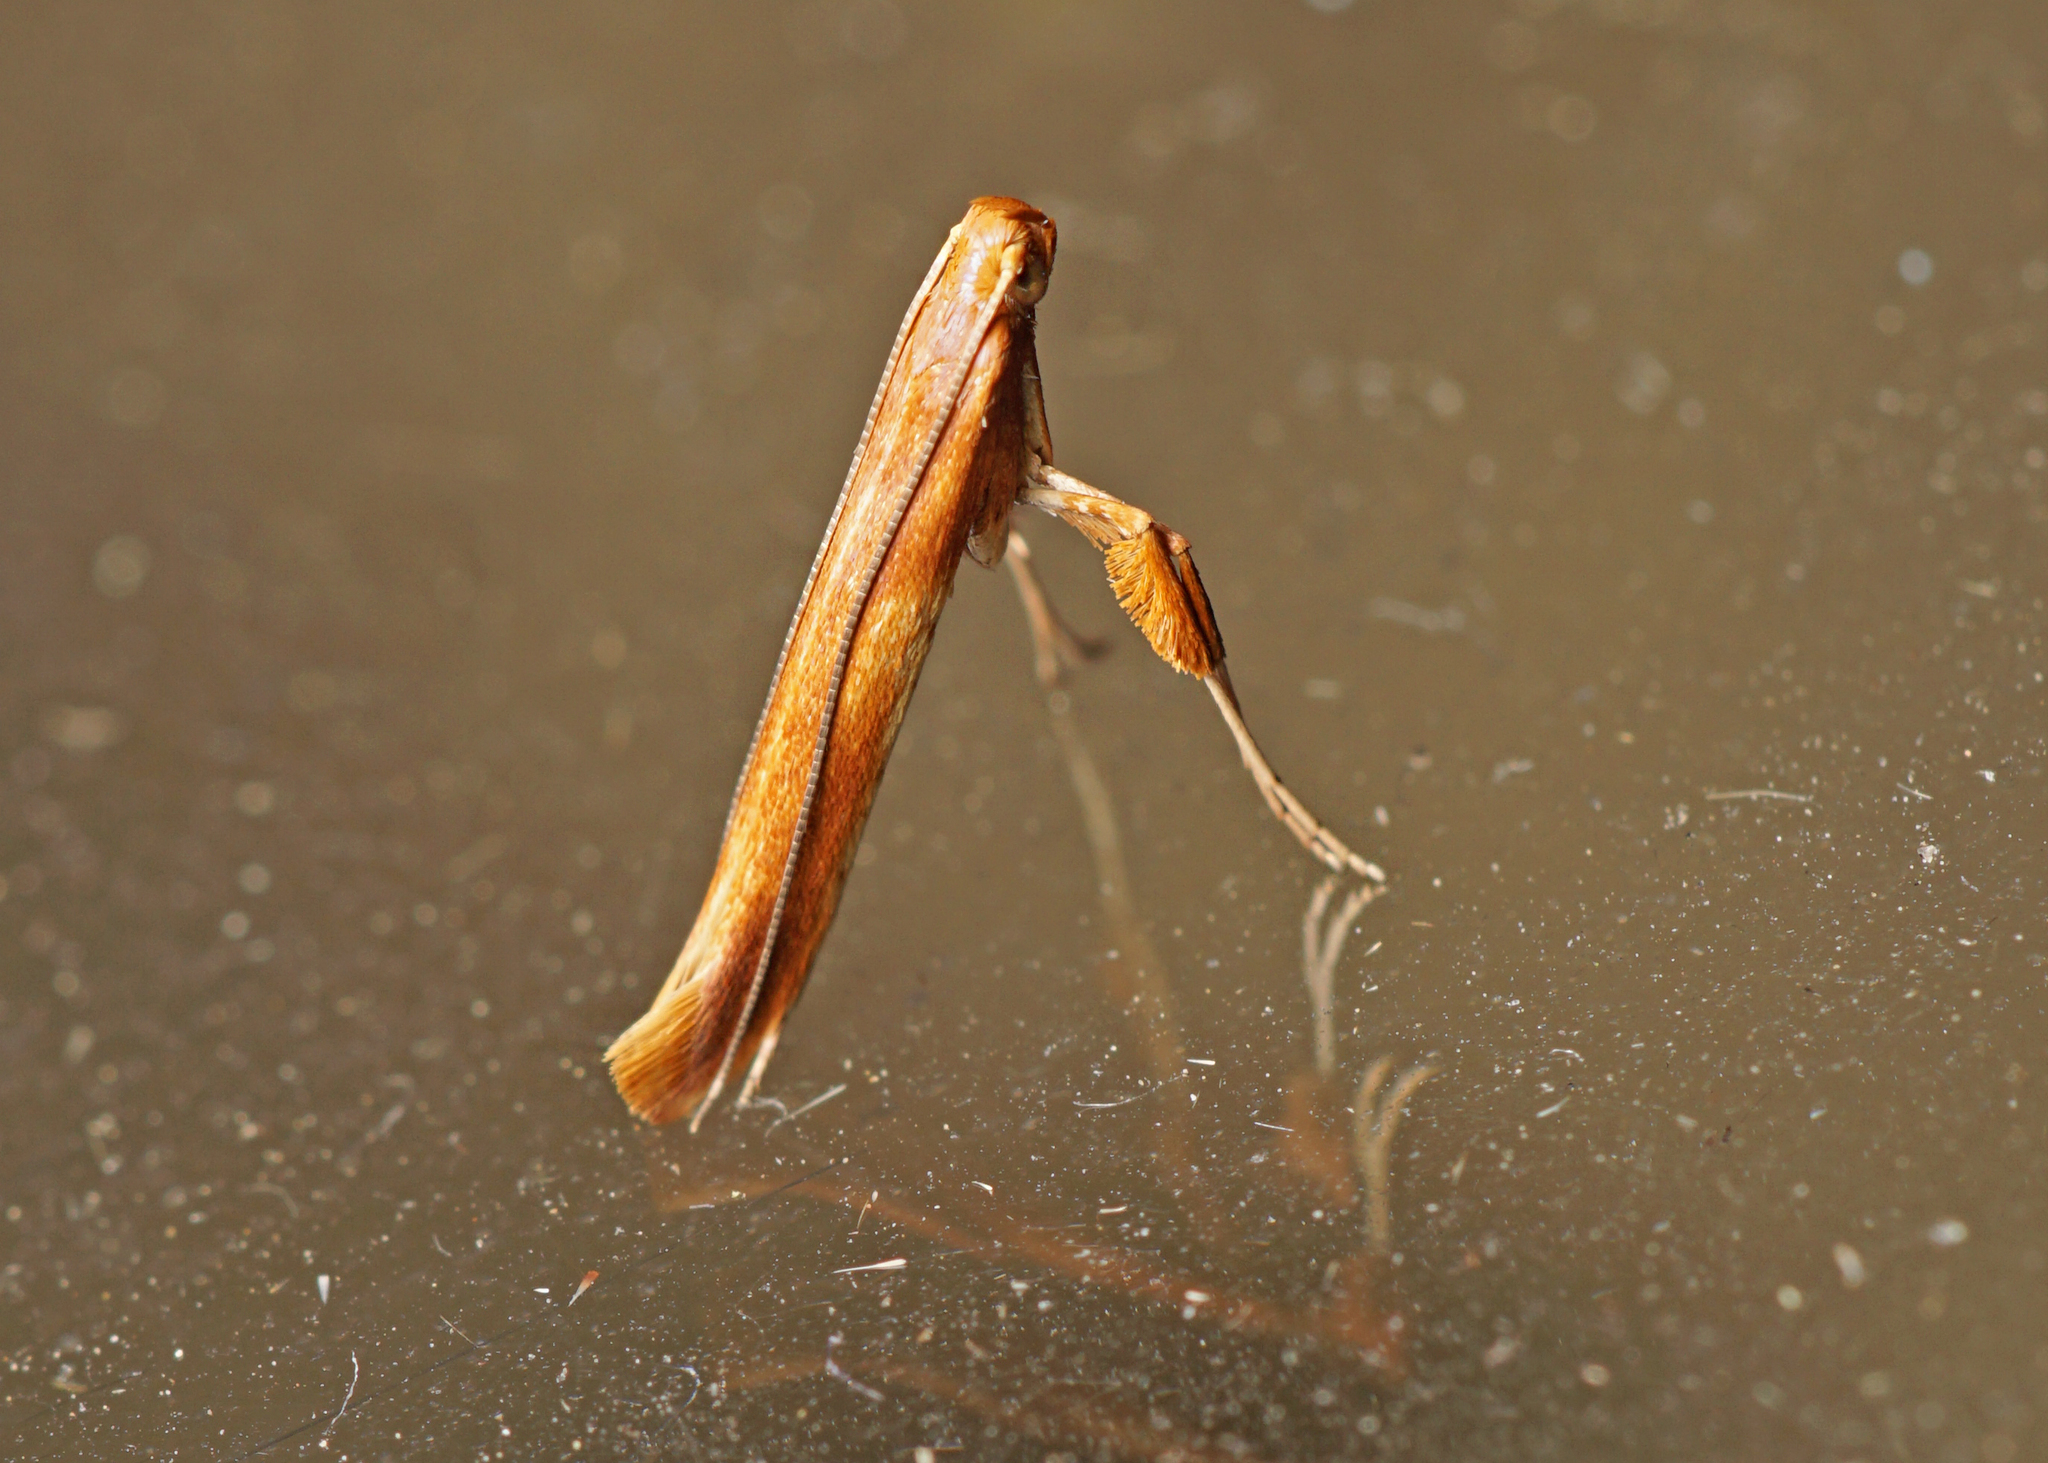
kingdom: Animalia
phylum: Arthropoda
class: Insecta
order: Lepidoptera
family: Gracillariidae
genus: Caloptilia
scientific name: Caloptilia elongella
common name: Pale red slender
